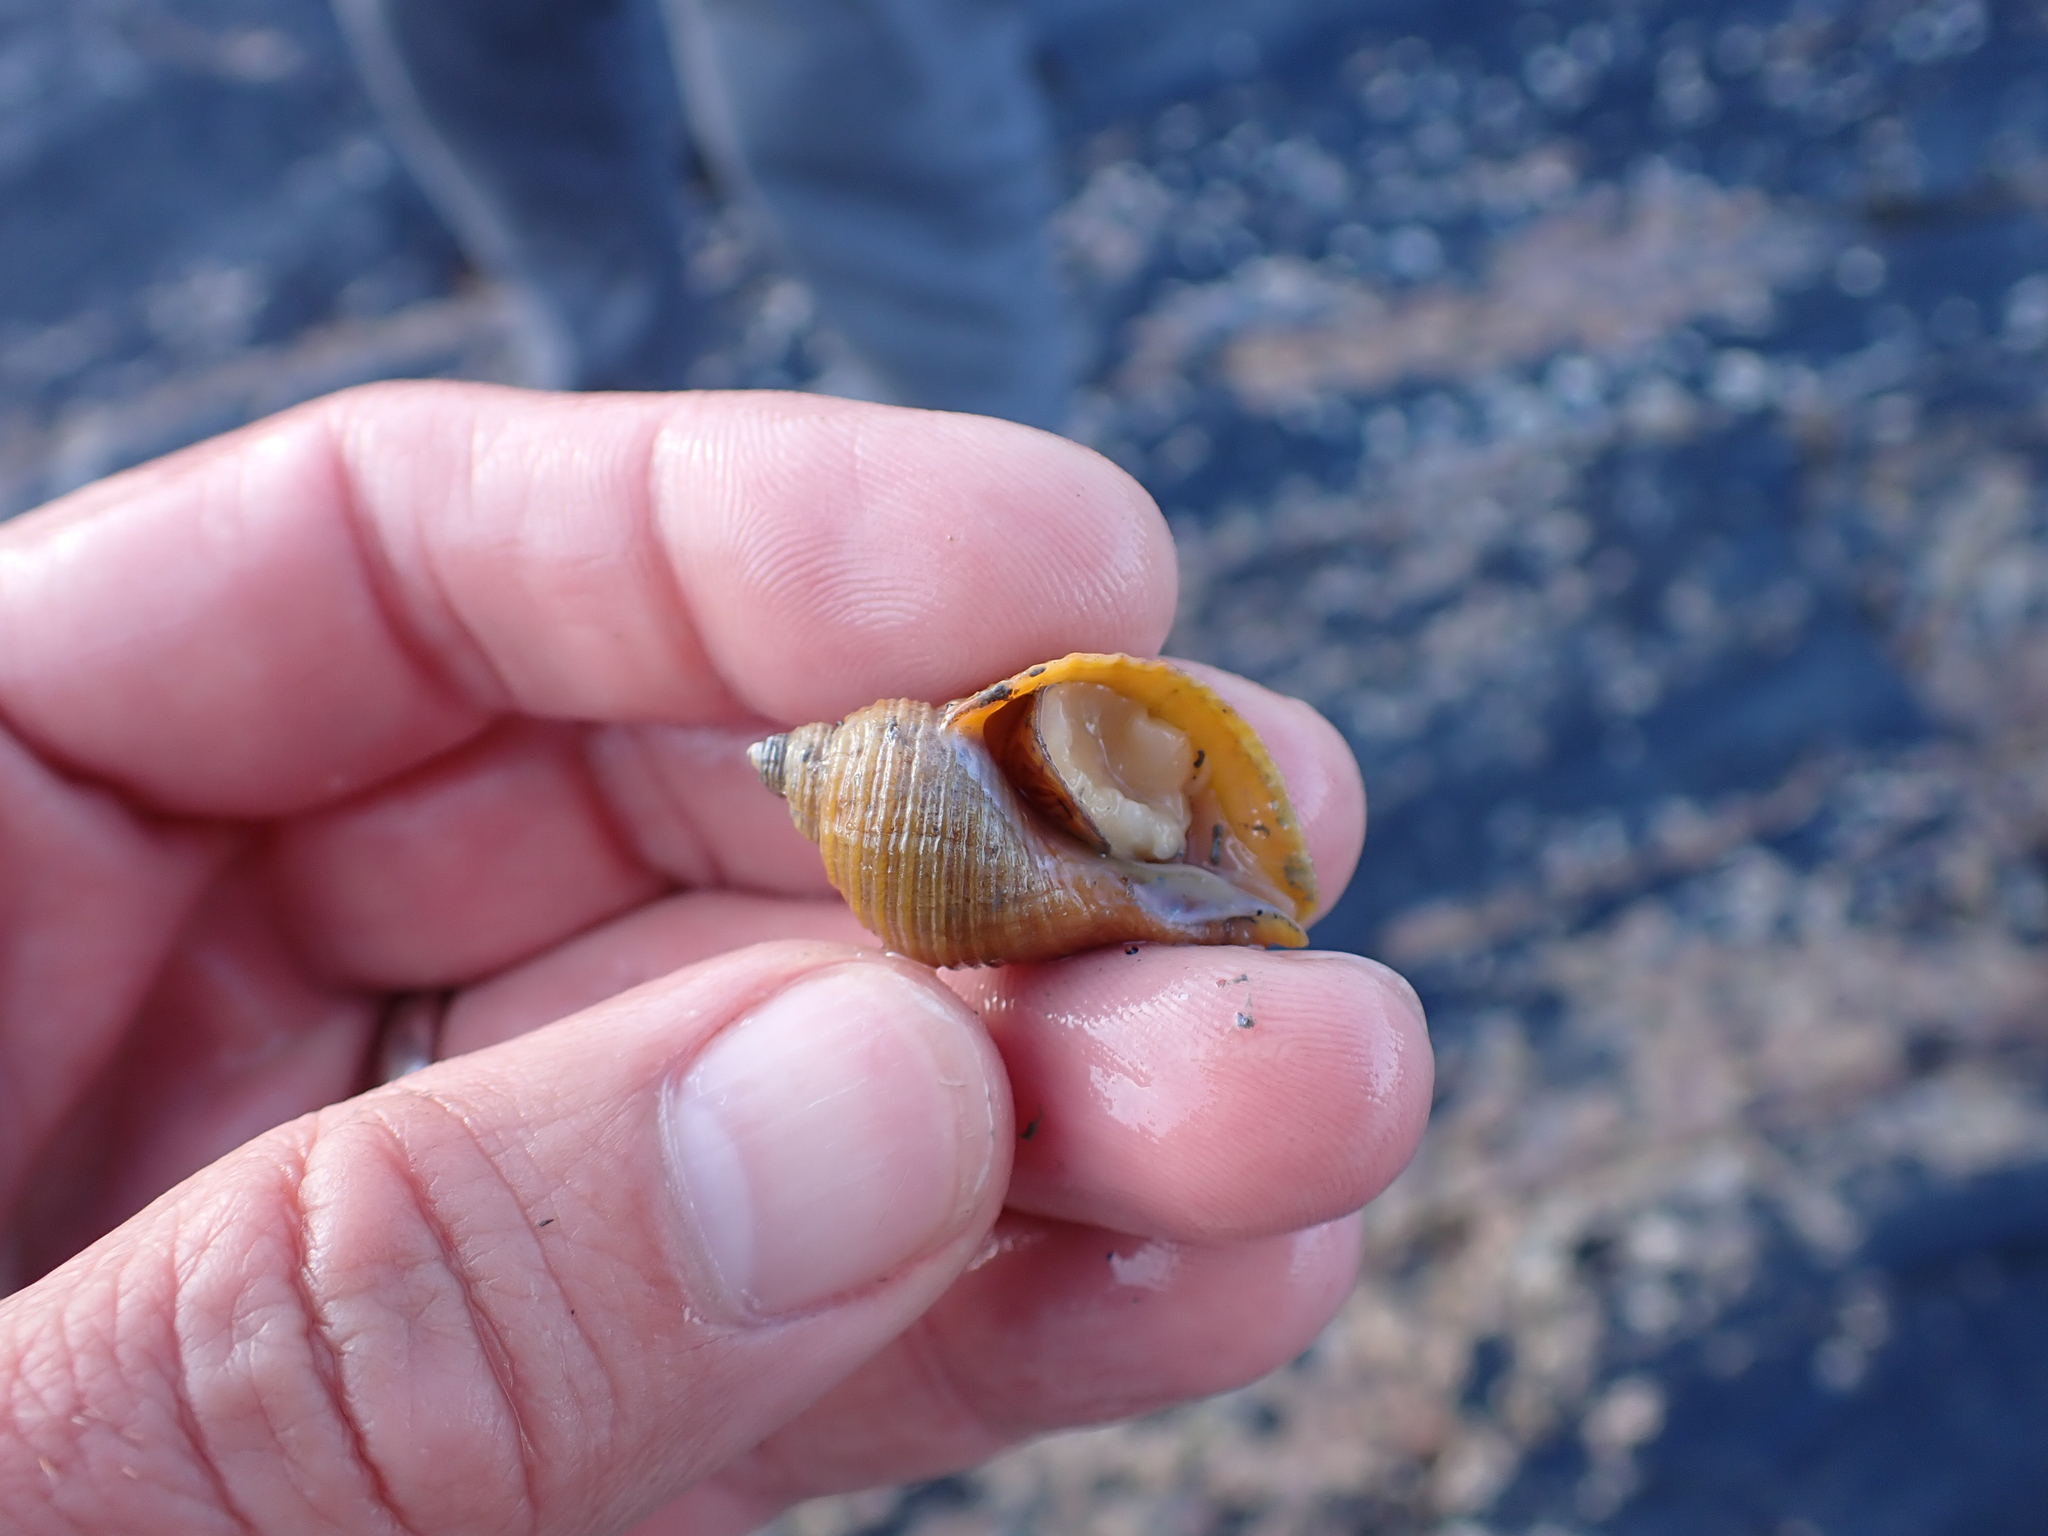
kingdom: Animalia
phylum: Mollusca
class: Gastropoda
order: Neogastropoda
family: Muricidae
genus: Nucella
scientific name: Nucella lamellosa
